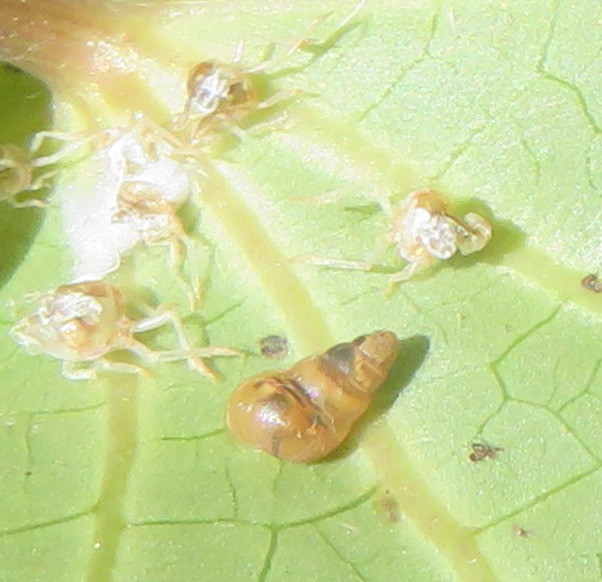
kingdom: Animalia
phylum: Mollusca
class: Gastropoda
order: Stylommatophora
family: Achatinellidae
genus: Tornatellides
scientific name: Tornatellides subperforatus
